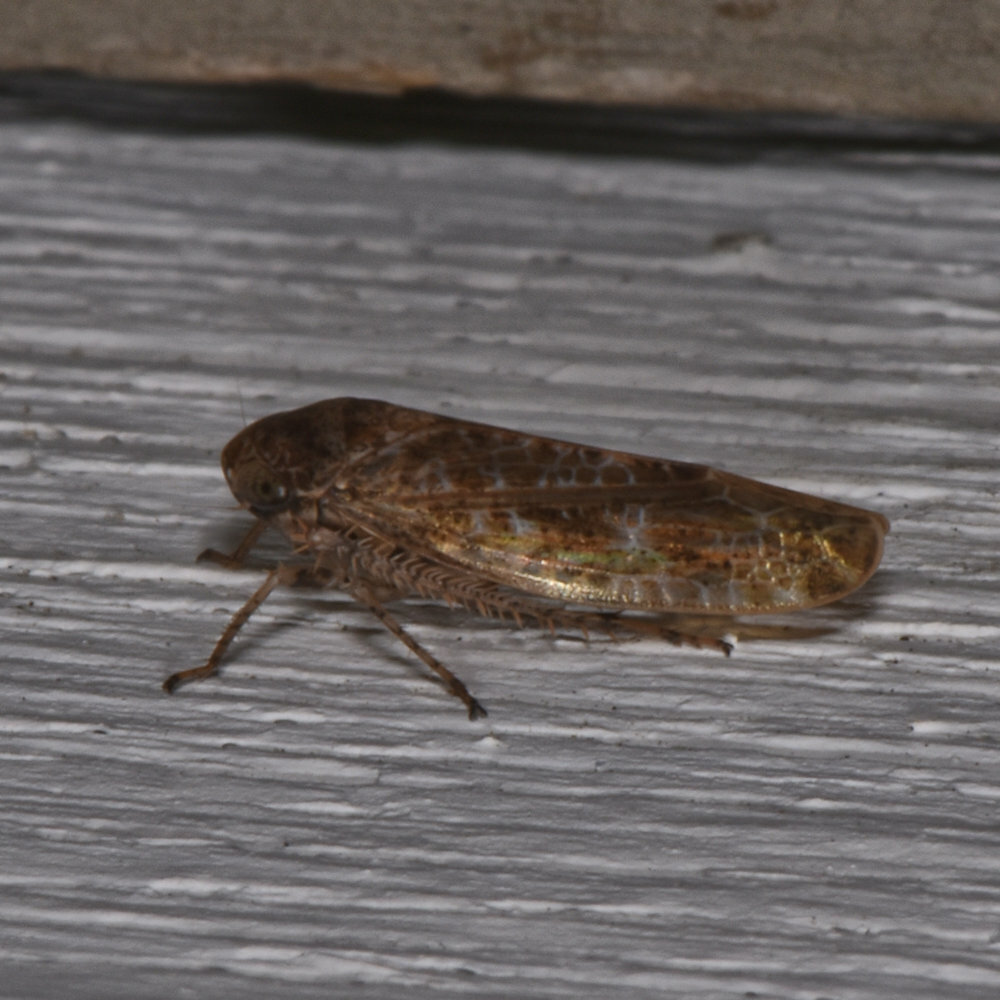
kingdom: Animalia
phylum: Arthropoda
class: Insecta
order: Hemiptera
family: Cicadellidae
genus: Allygidius
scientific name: Allygidius atomarius
